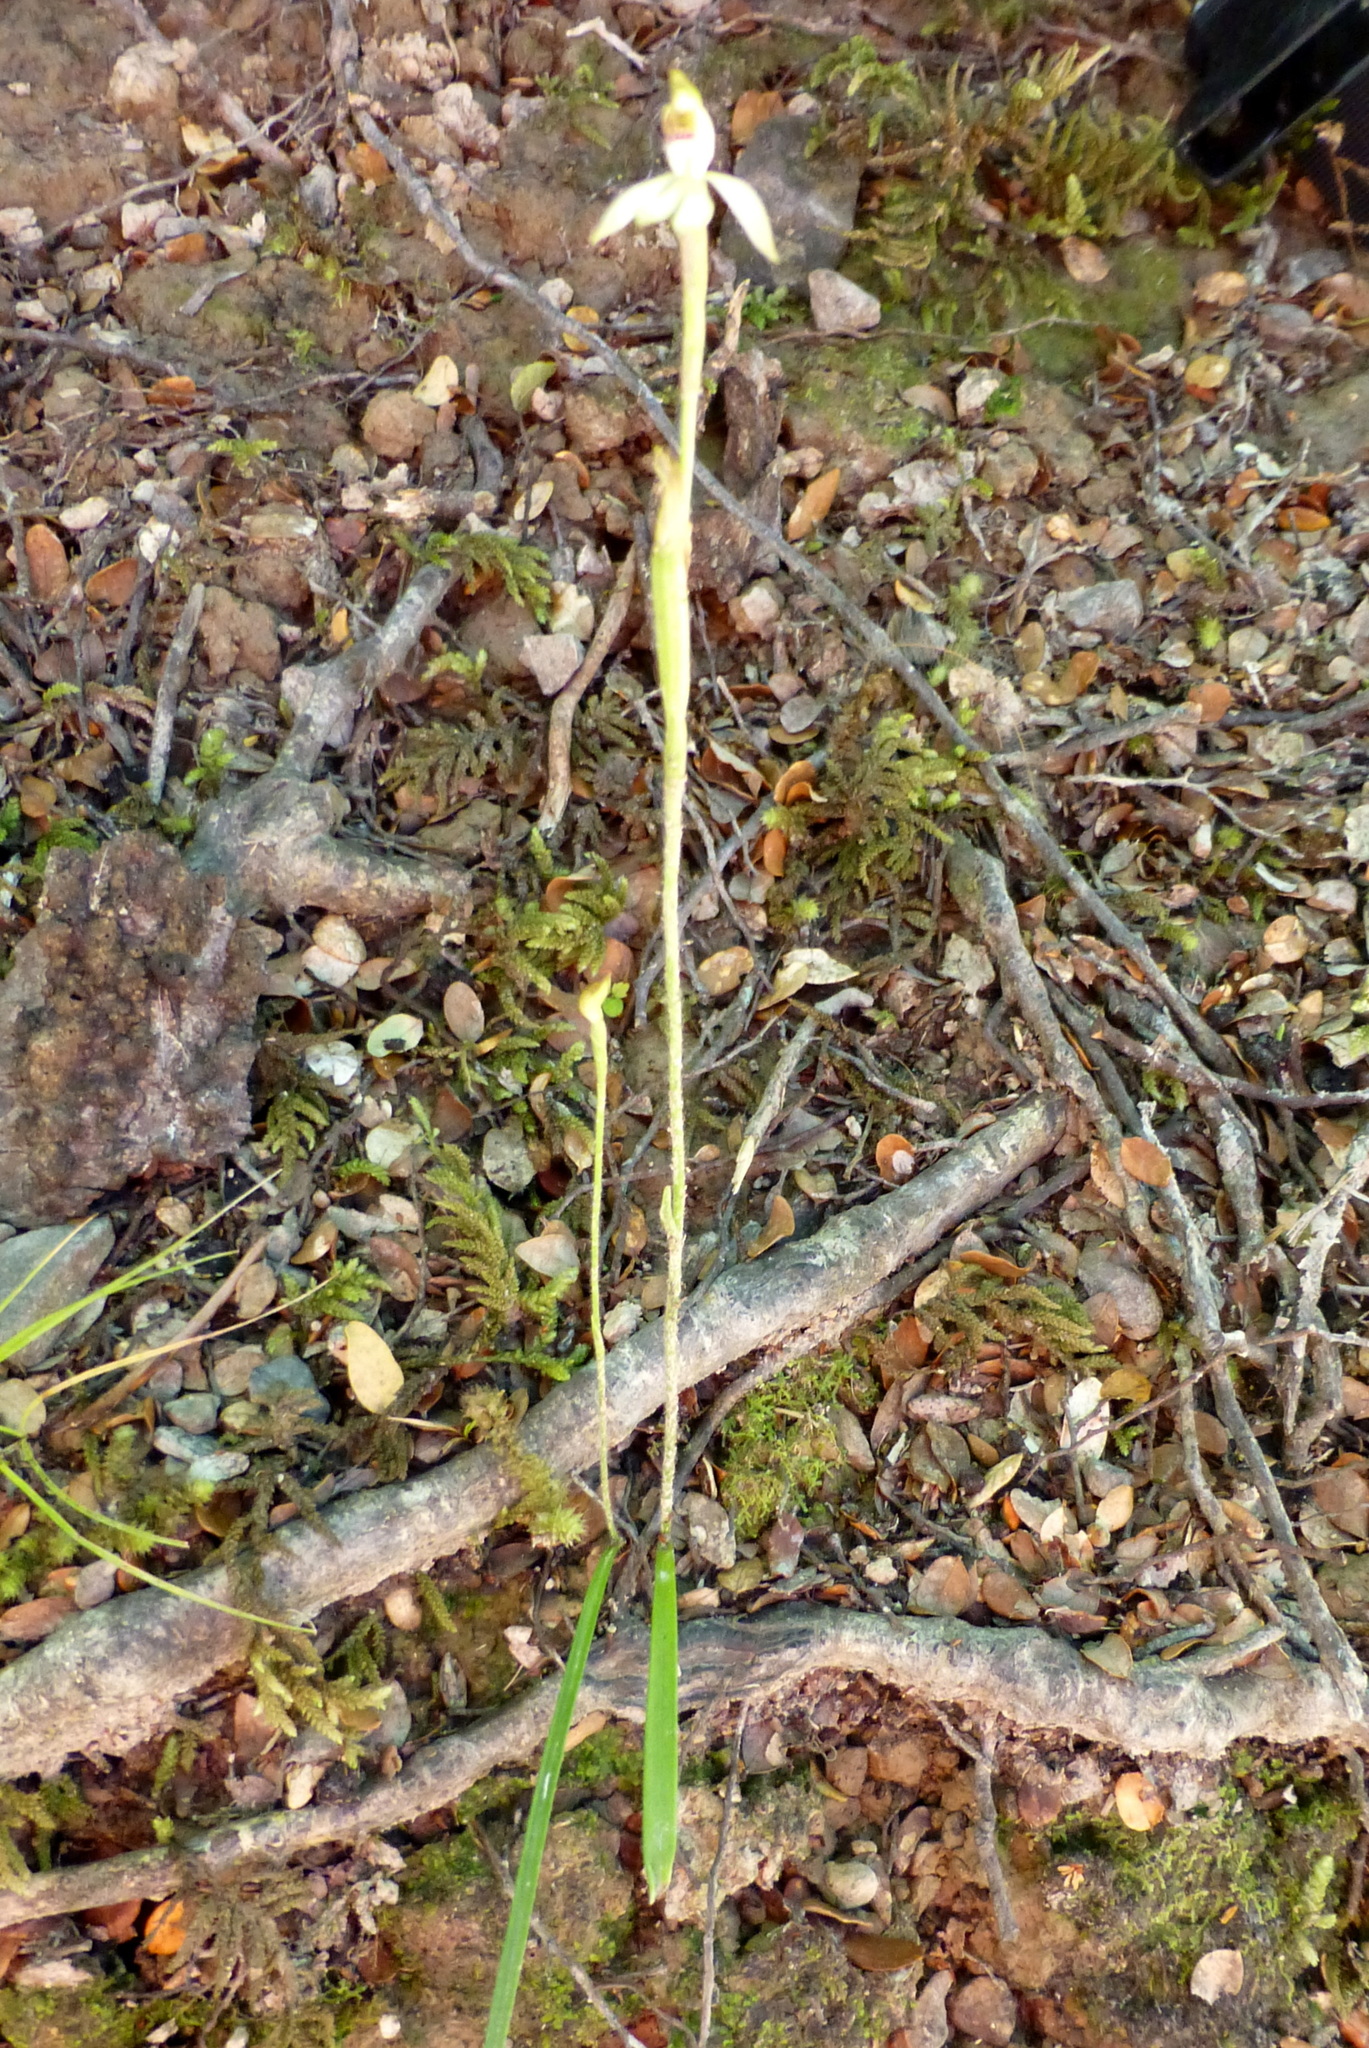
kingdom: Plantae
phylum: Tracheophyta
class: Liliopsida
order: Asparagales
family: Orchidaceae
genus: Caladenia
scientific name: Caladenia chlorostyla
